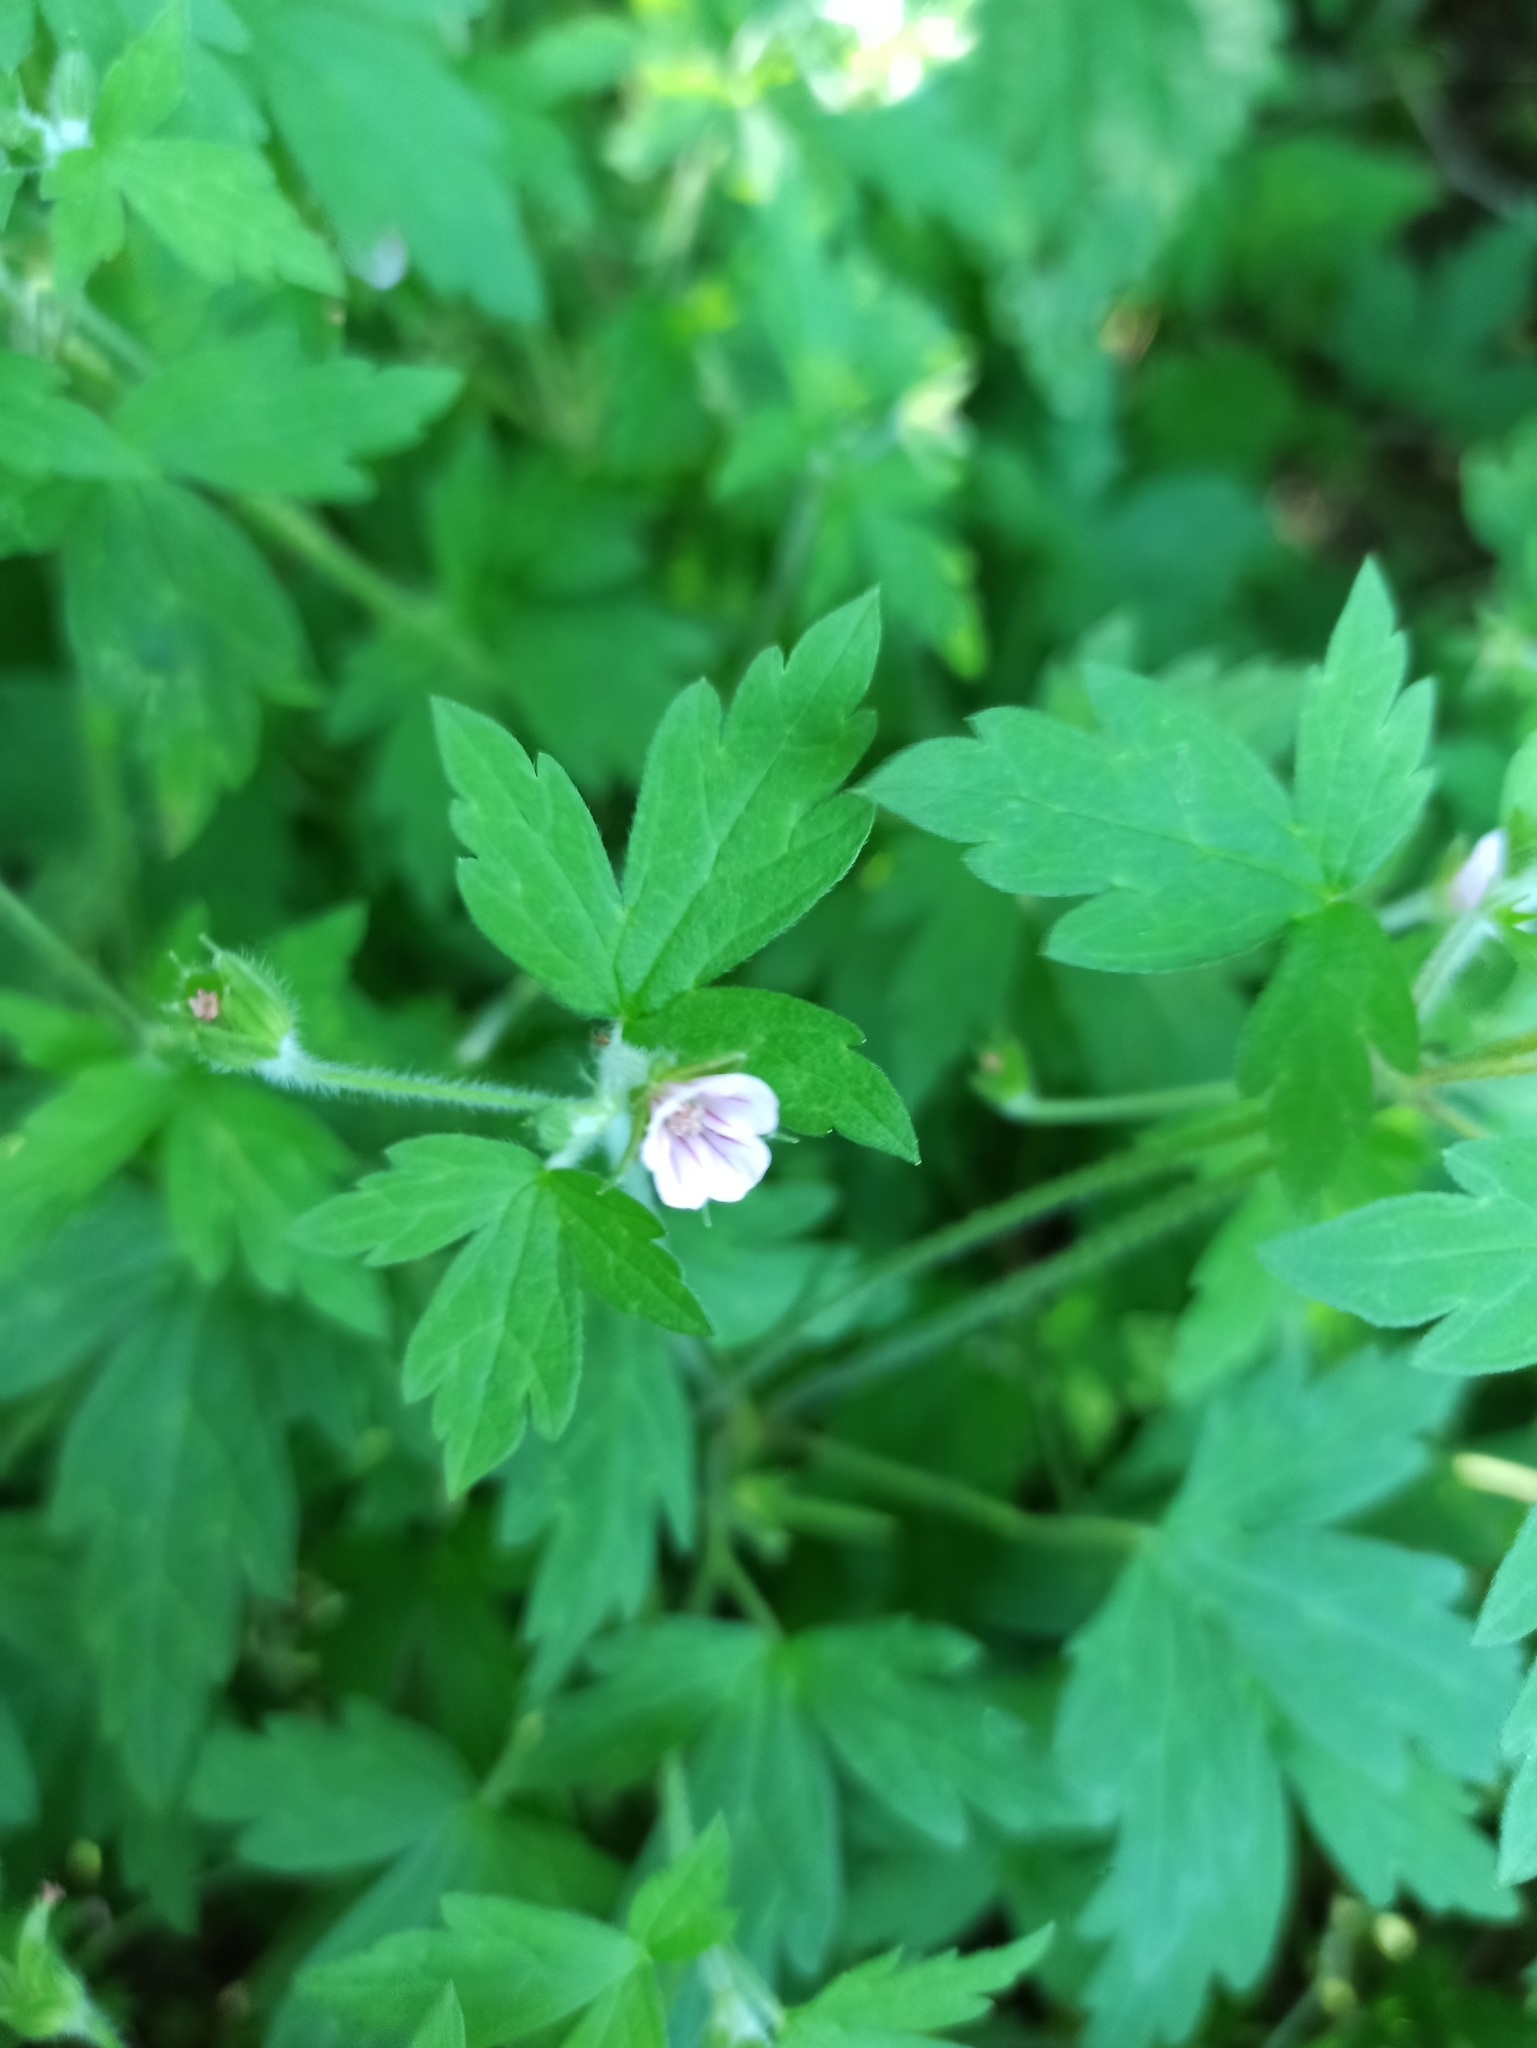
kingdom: Plantae
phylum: Tracheophyta
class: Magnoliopsida
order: Geraniales
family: Geraniaceae
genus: Geranium
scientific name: Geranium sibiricum
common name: Siberian crane's-bill
